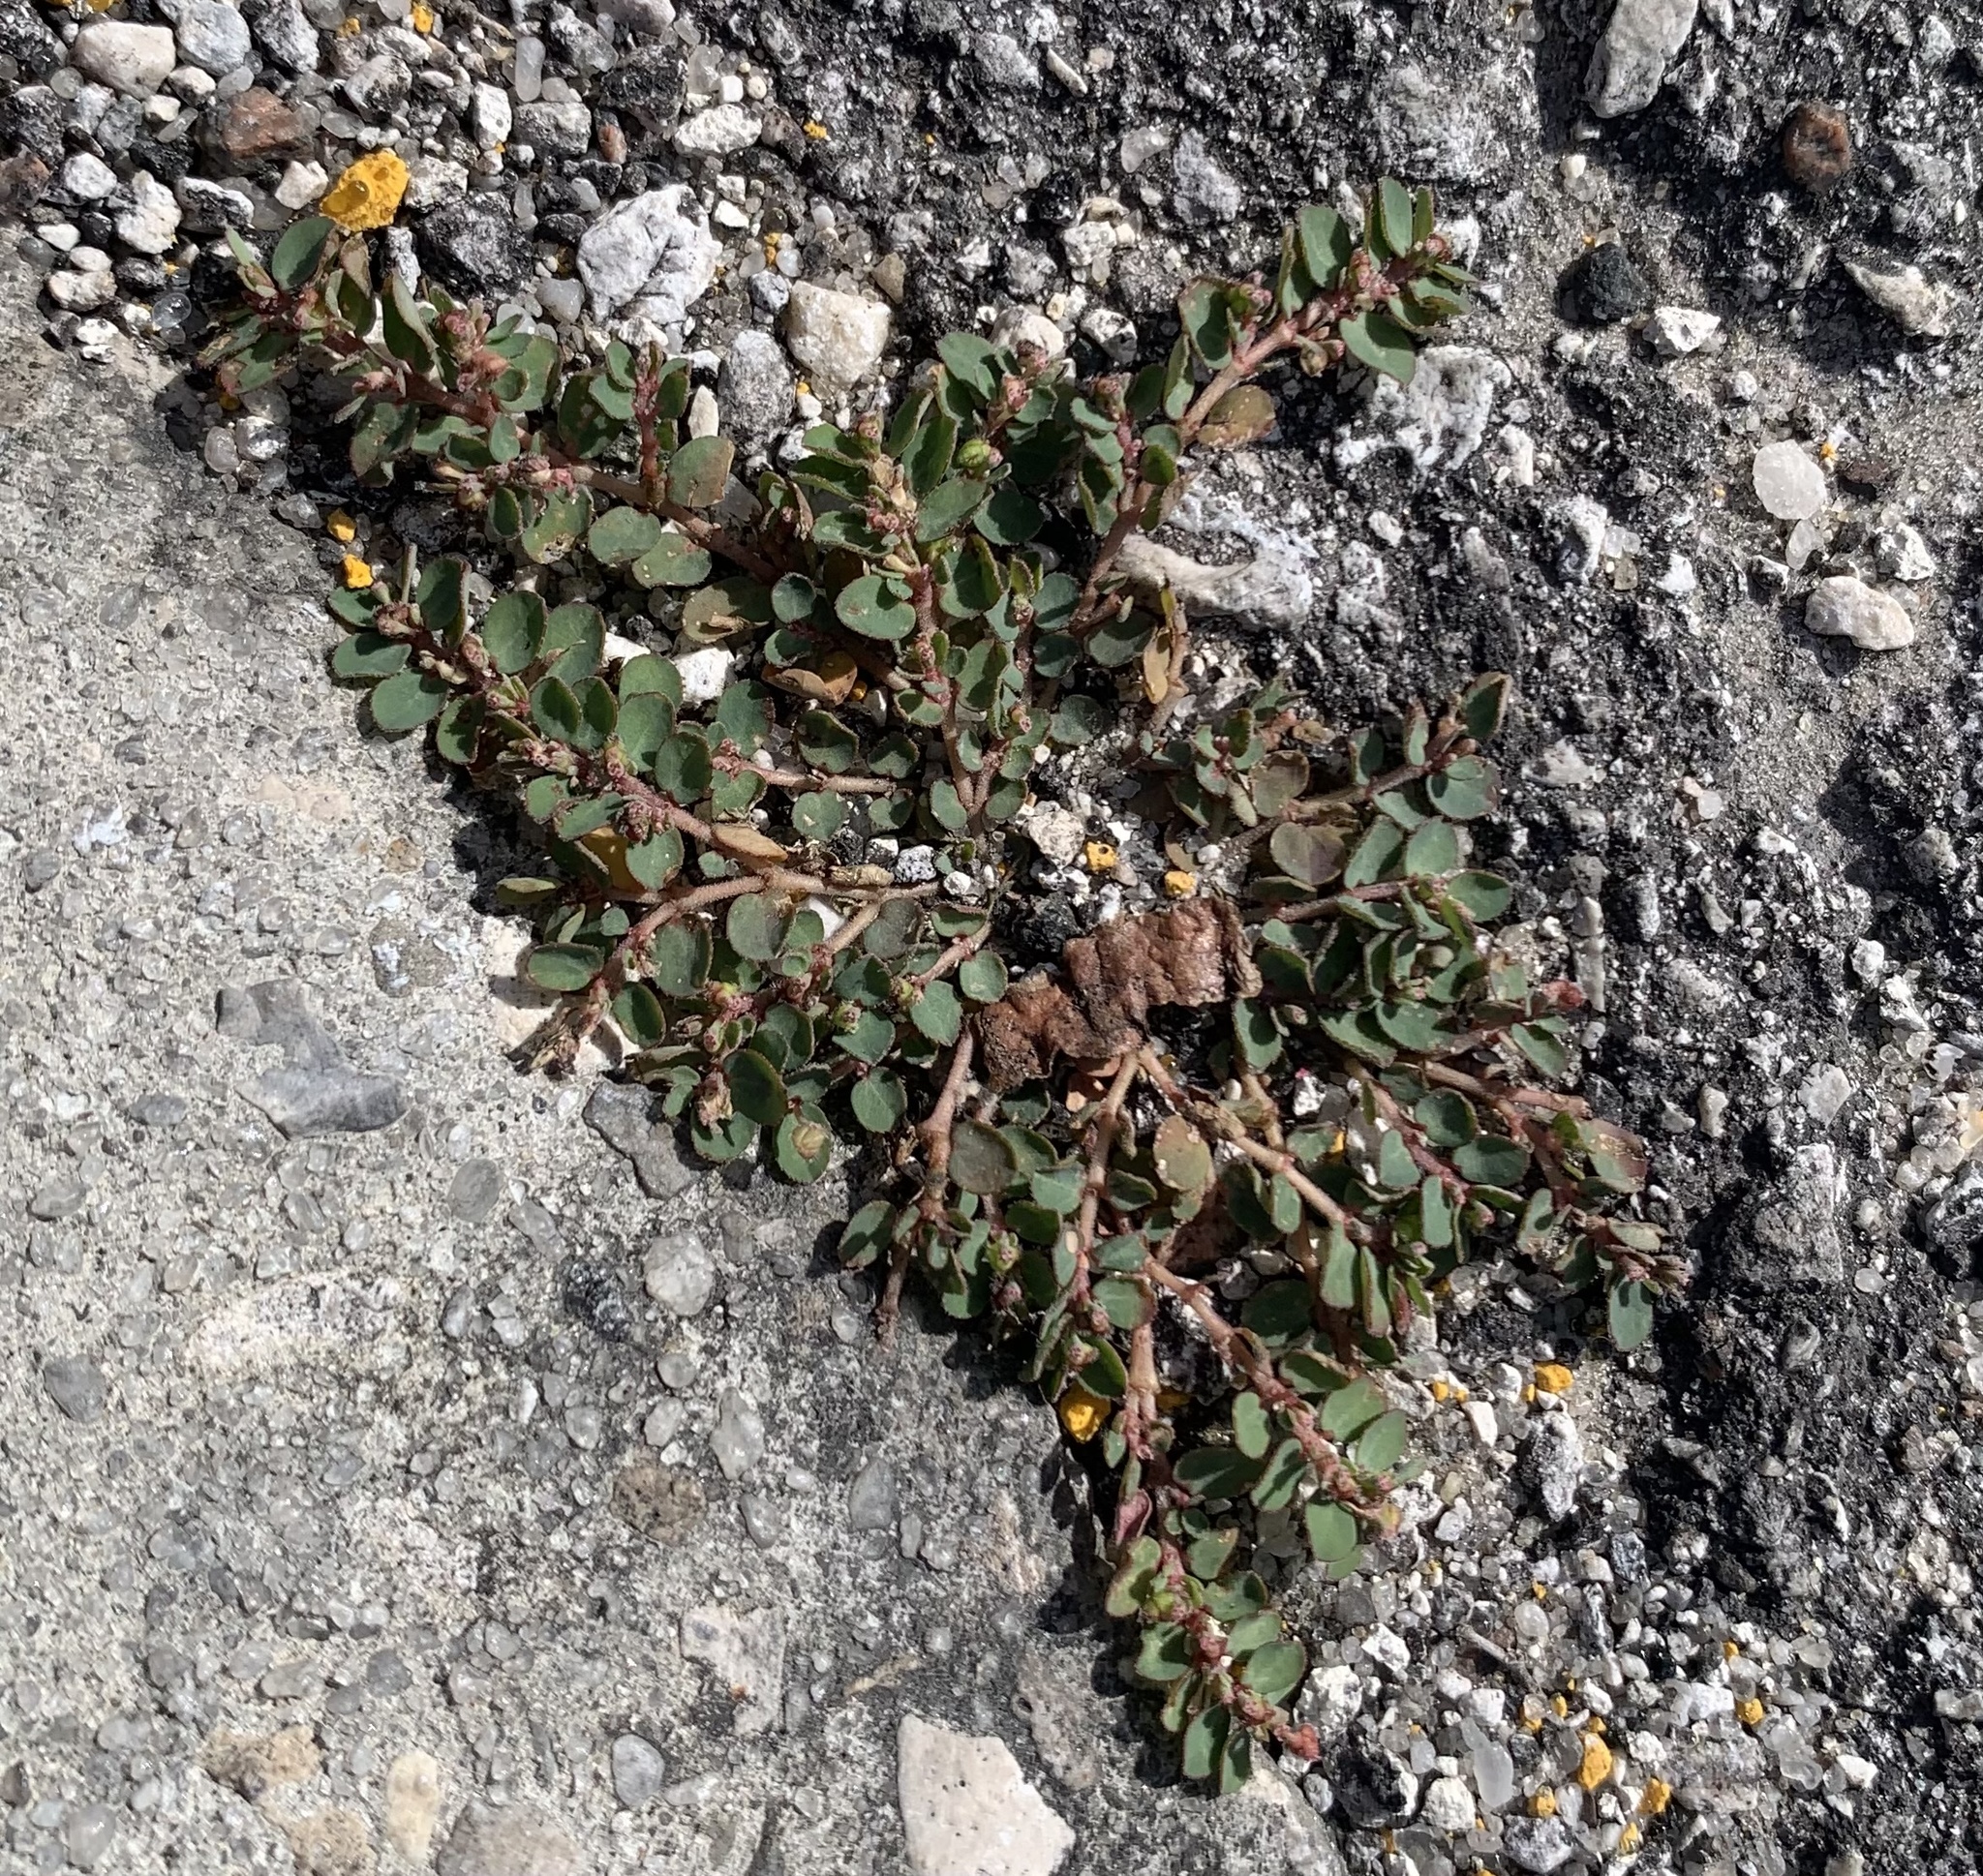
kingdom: Plantae
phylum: Tracheophyta
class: Magnoliopsida
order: Malpighiales
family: Euphorbiaceae
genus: Euphorbia
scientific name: Euphorbia prostrata
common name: Prostrate sandmat
